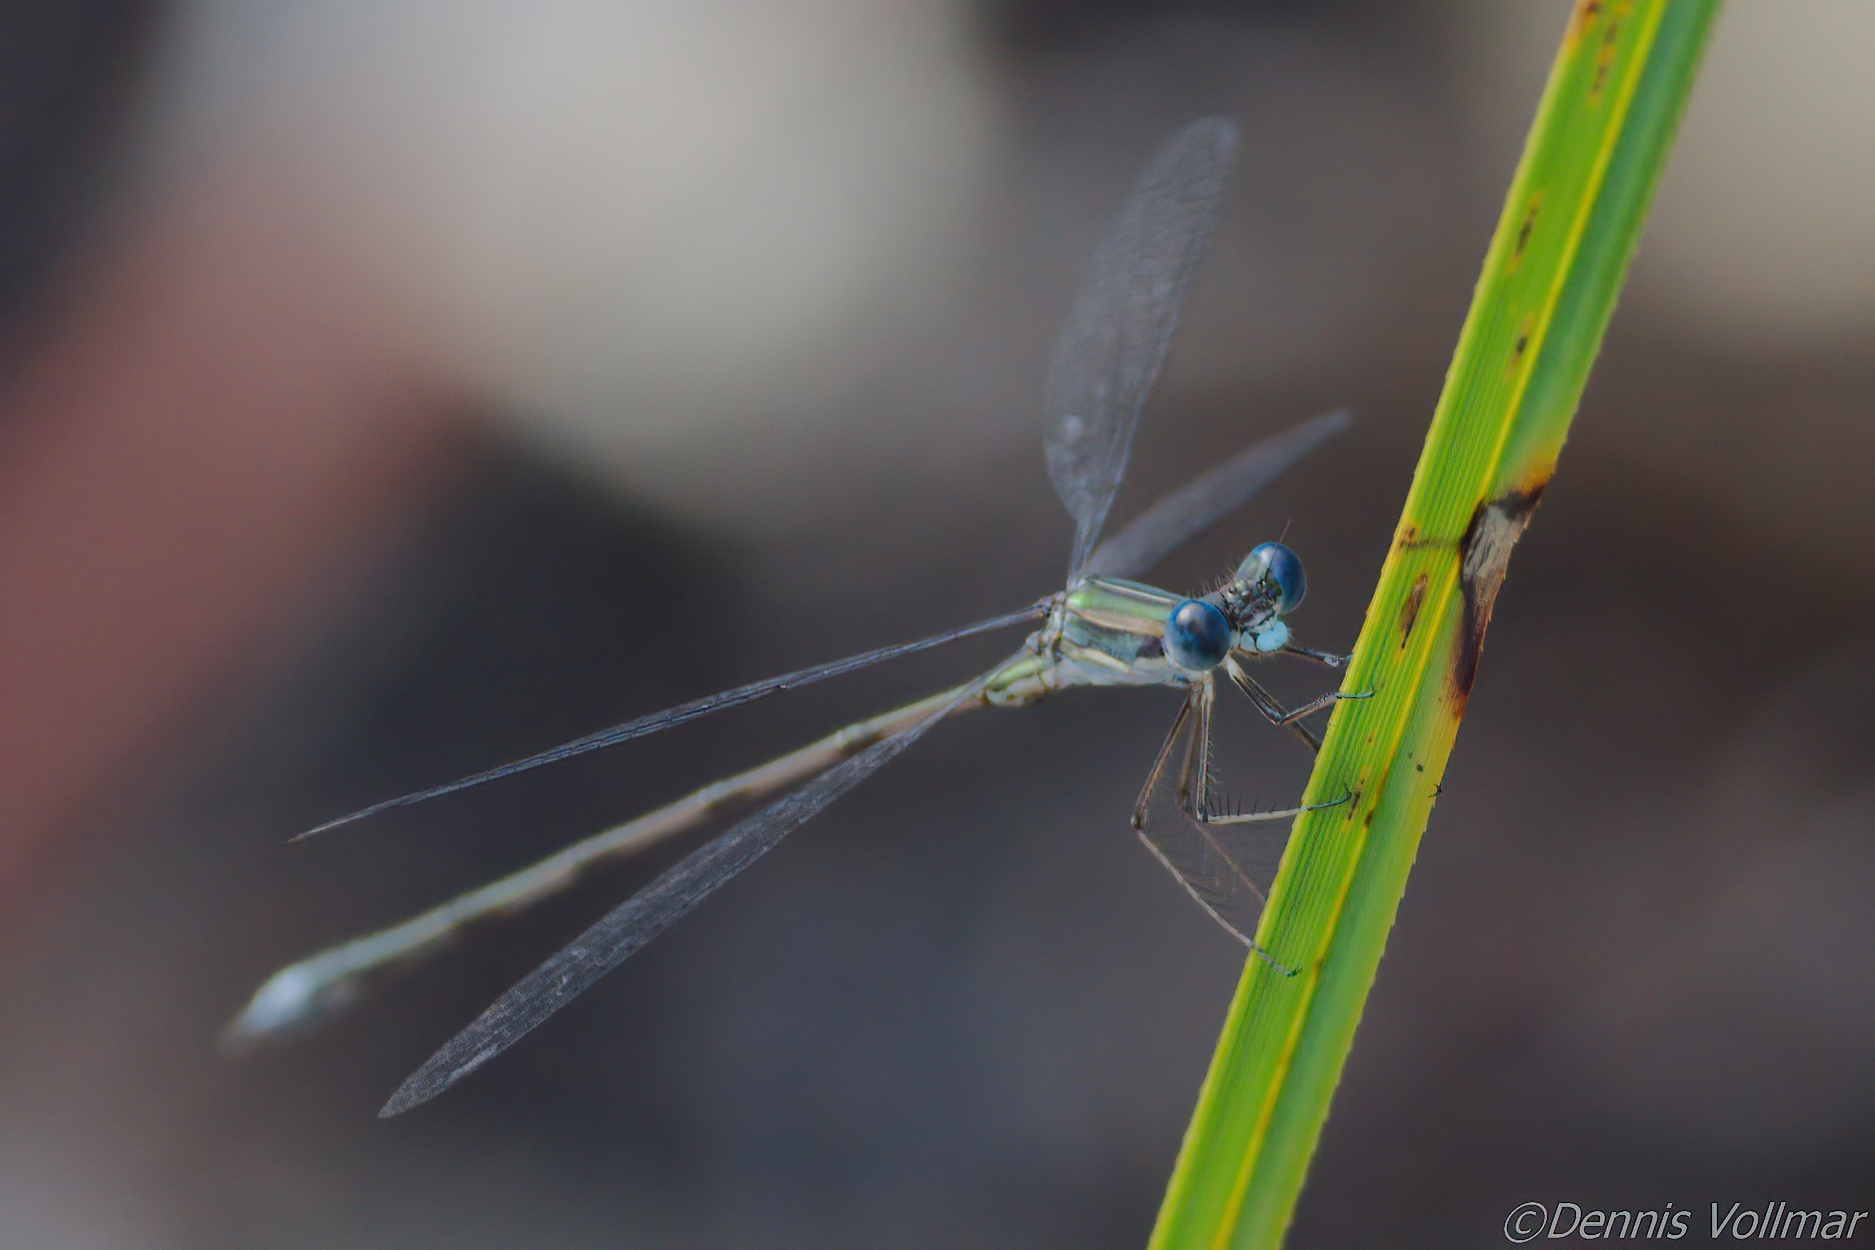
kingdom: Animalia
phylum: Arthropoda
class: Insecta
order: Odonata
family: Lestidae
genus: Lestes
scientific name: Lestes spumarius
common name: Antillean spreadwing
